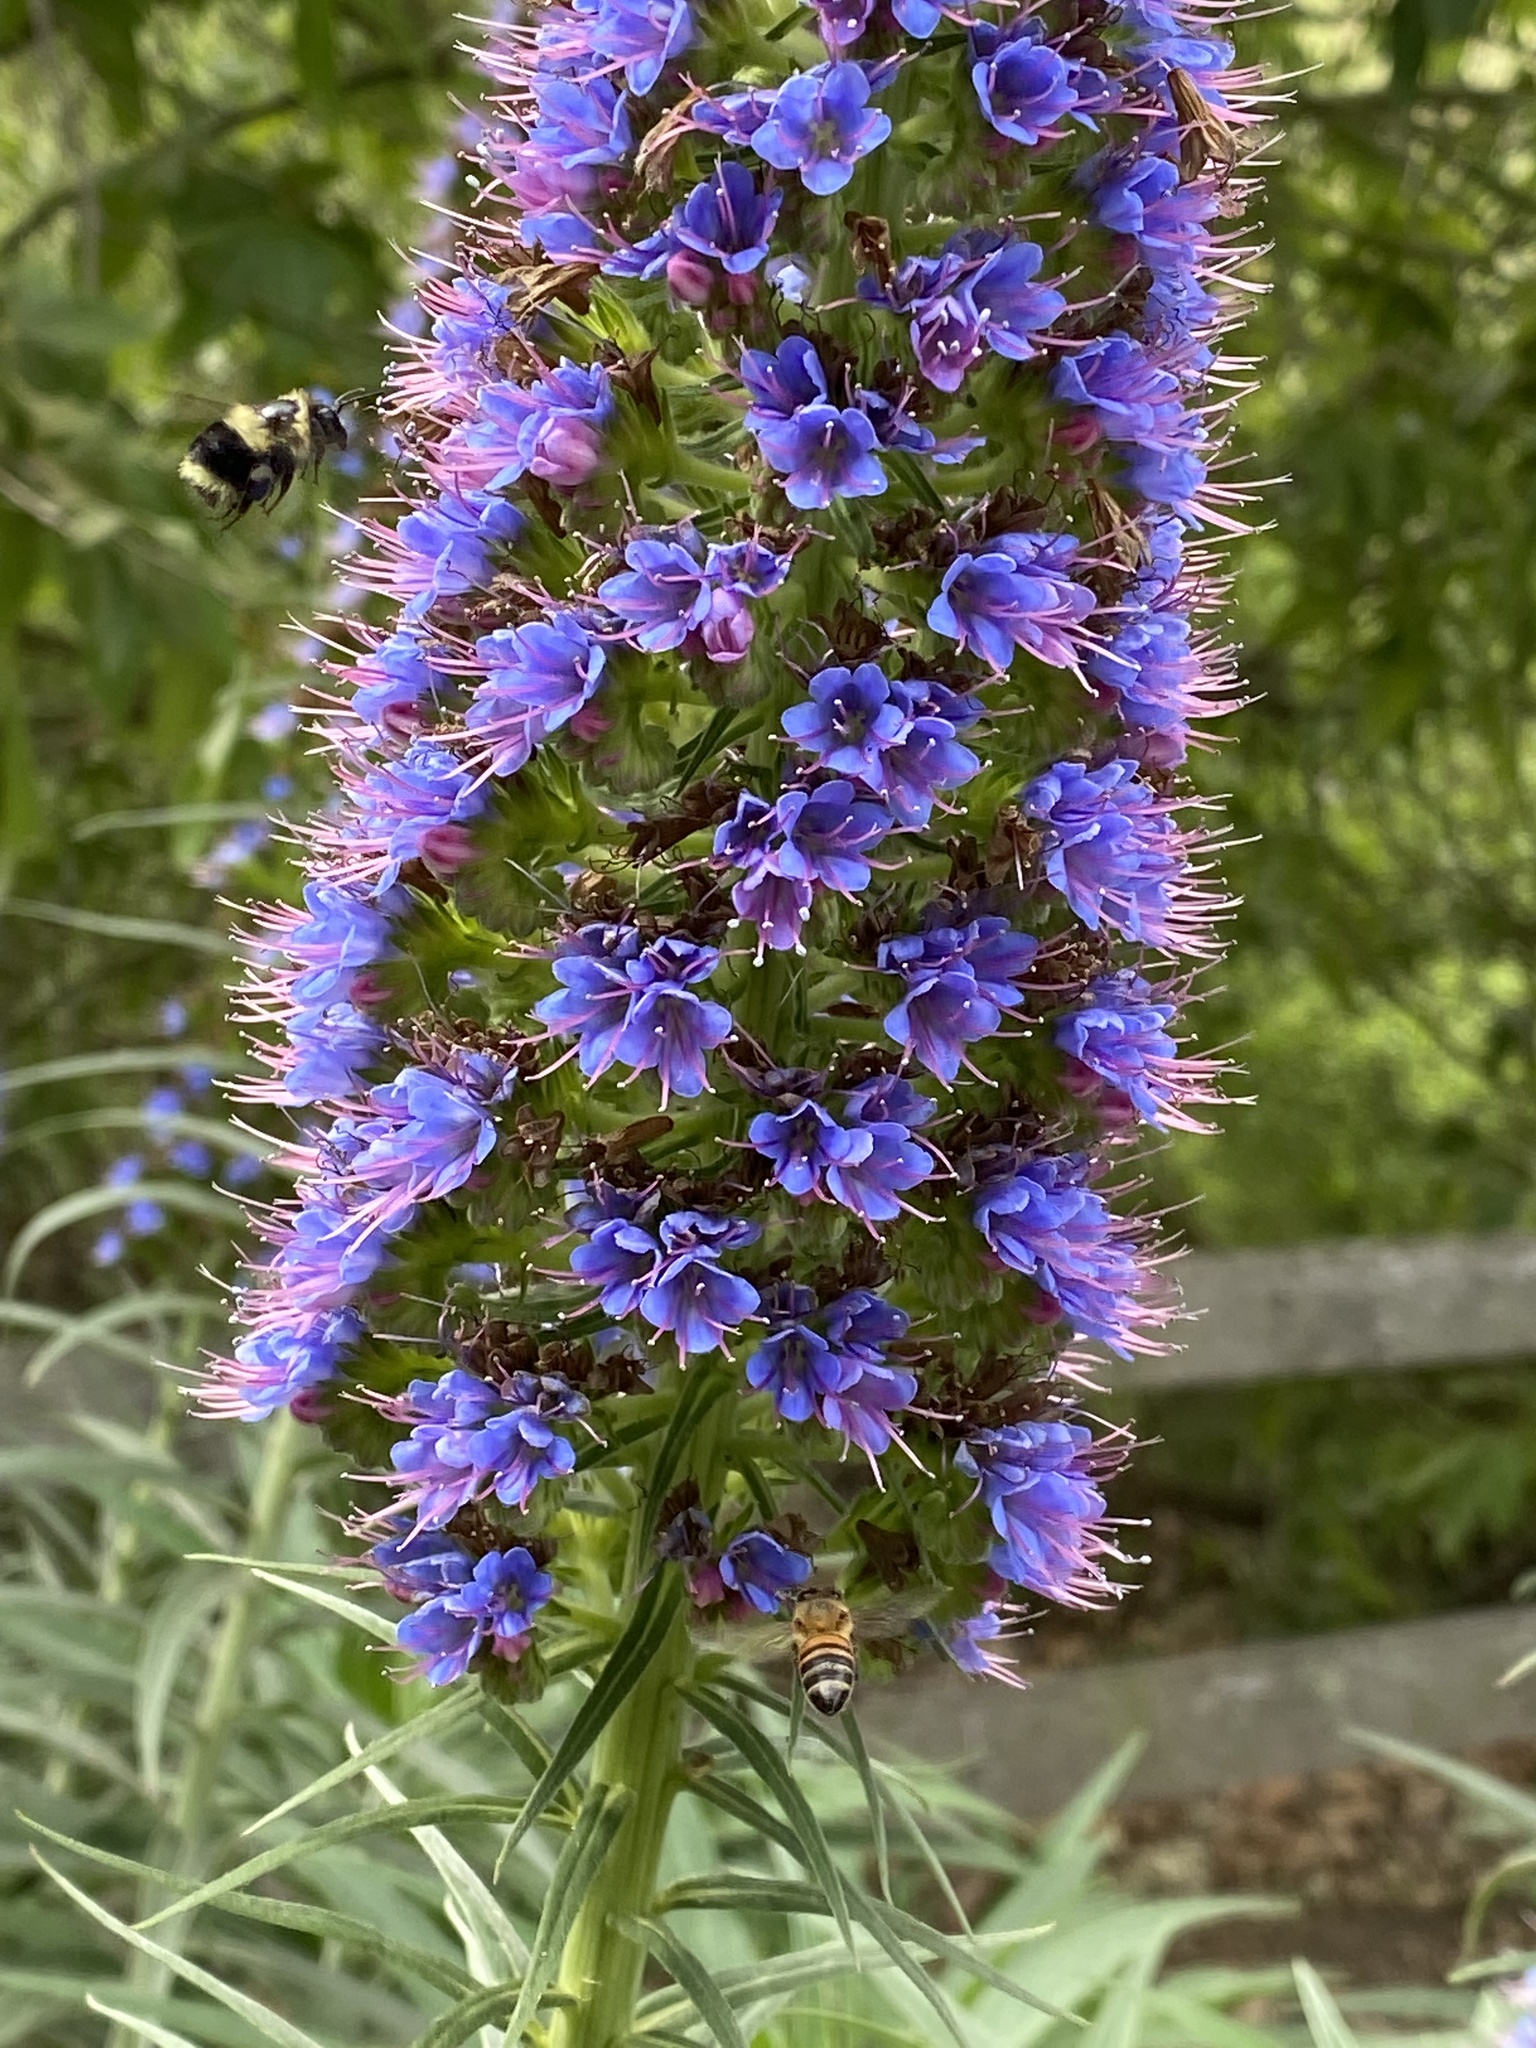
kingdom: Animalia
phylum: Arthropoda
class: Insecta
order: Hymenoptera
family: Apidae
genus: Bombus
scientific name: Bombus melanopygus
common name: Black tail bumble bee
